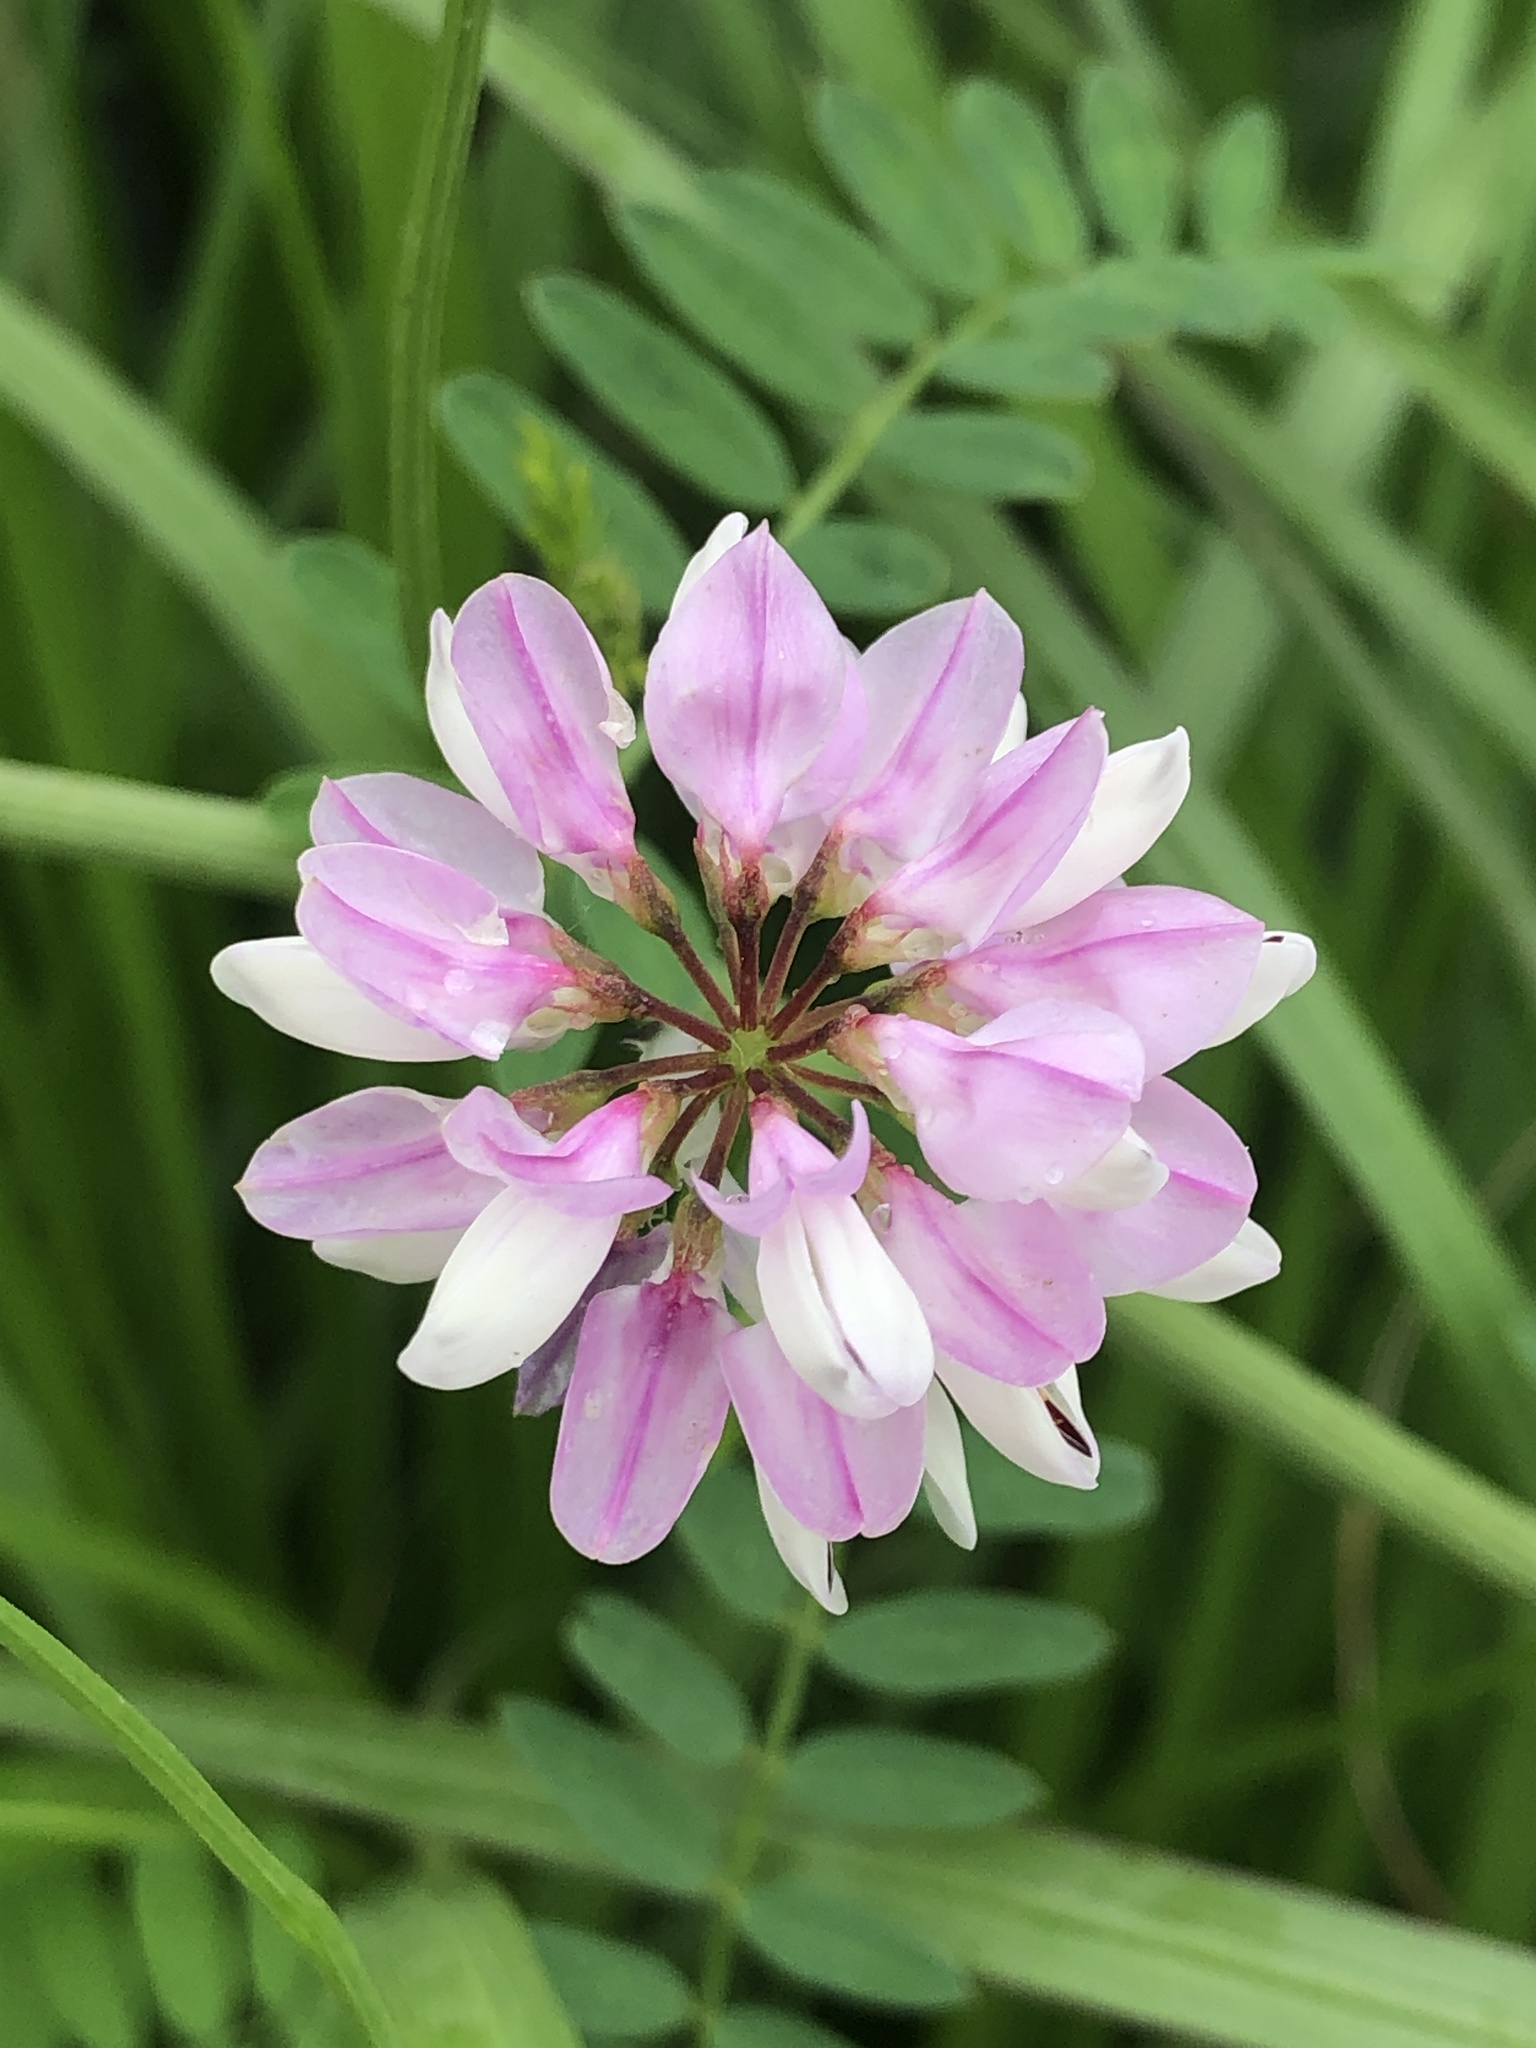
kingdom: Plantae
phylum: Tracheophyta
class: Magnoliopsida
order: Fabales
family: Fabaceae
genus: Coronilla
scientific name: Coronilla varia
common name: Crownvetch
